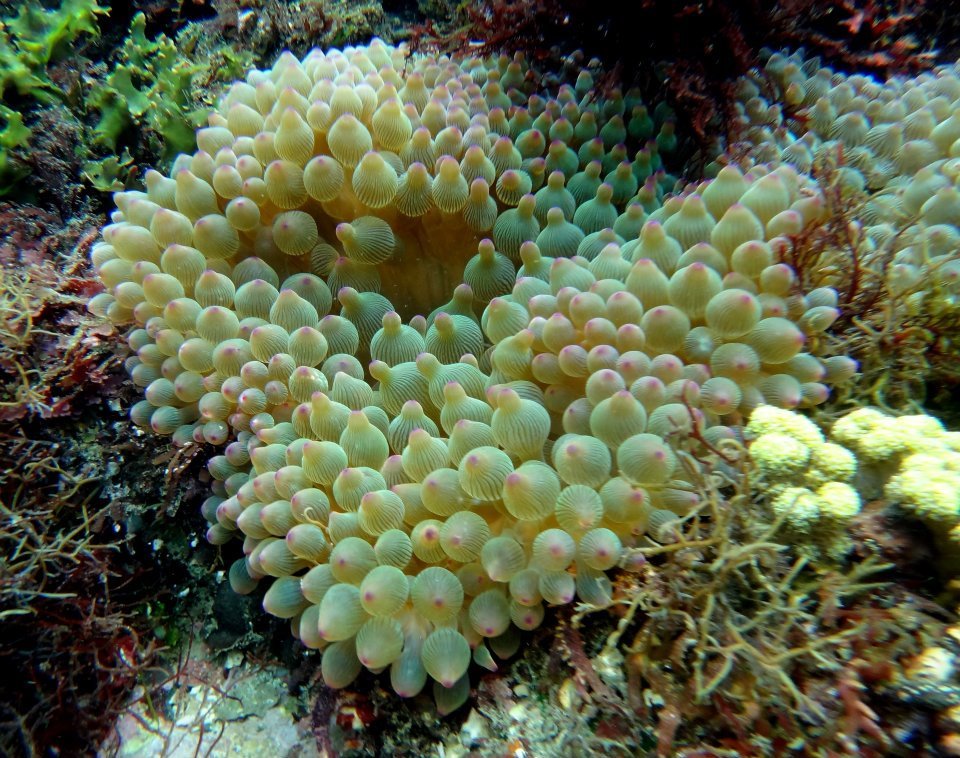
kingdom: Animalia
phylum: Cnidaria
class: Anthozoa
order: Actiniaria
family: Actiniidae
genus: Entacmaea
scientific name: Entacmaea quadricolor
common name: Bulb tentacle sea anemone
